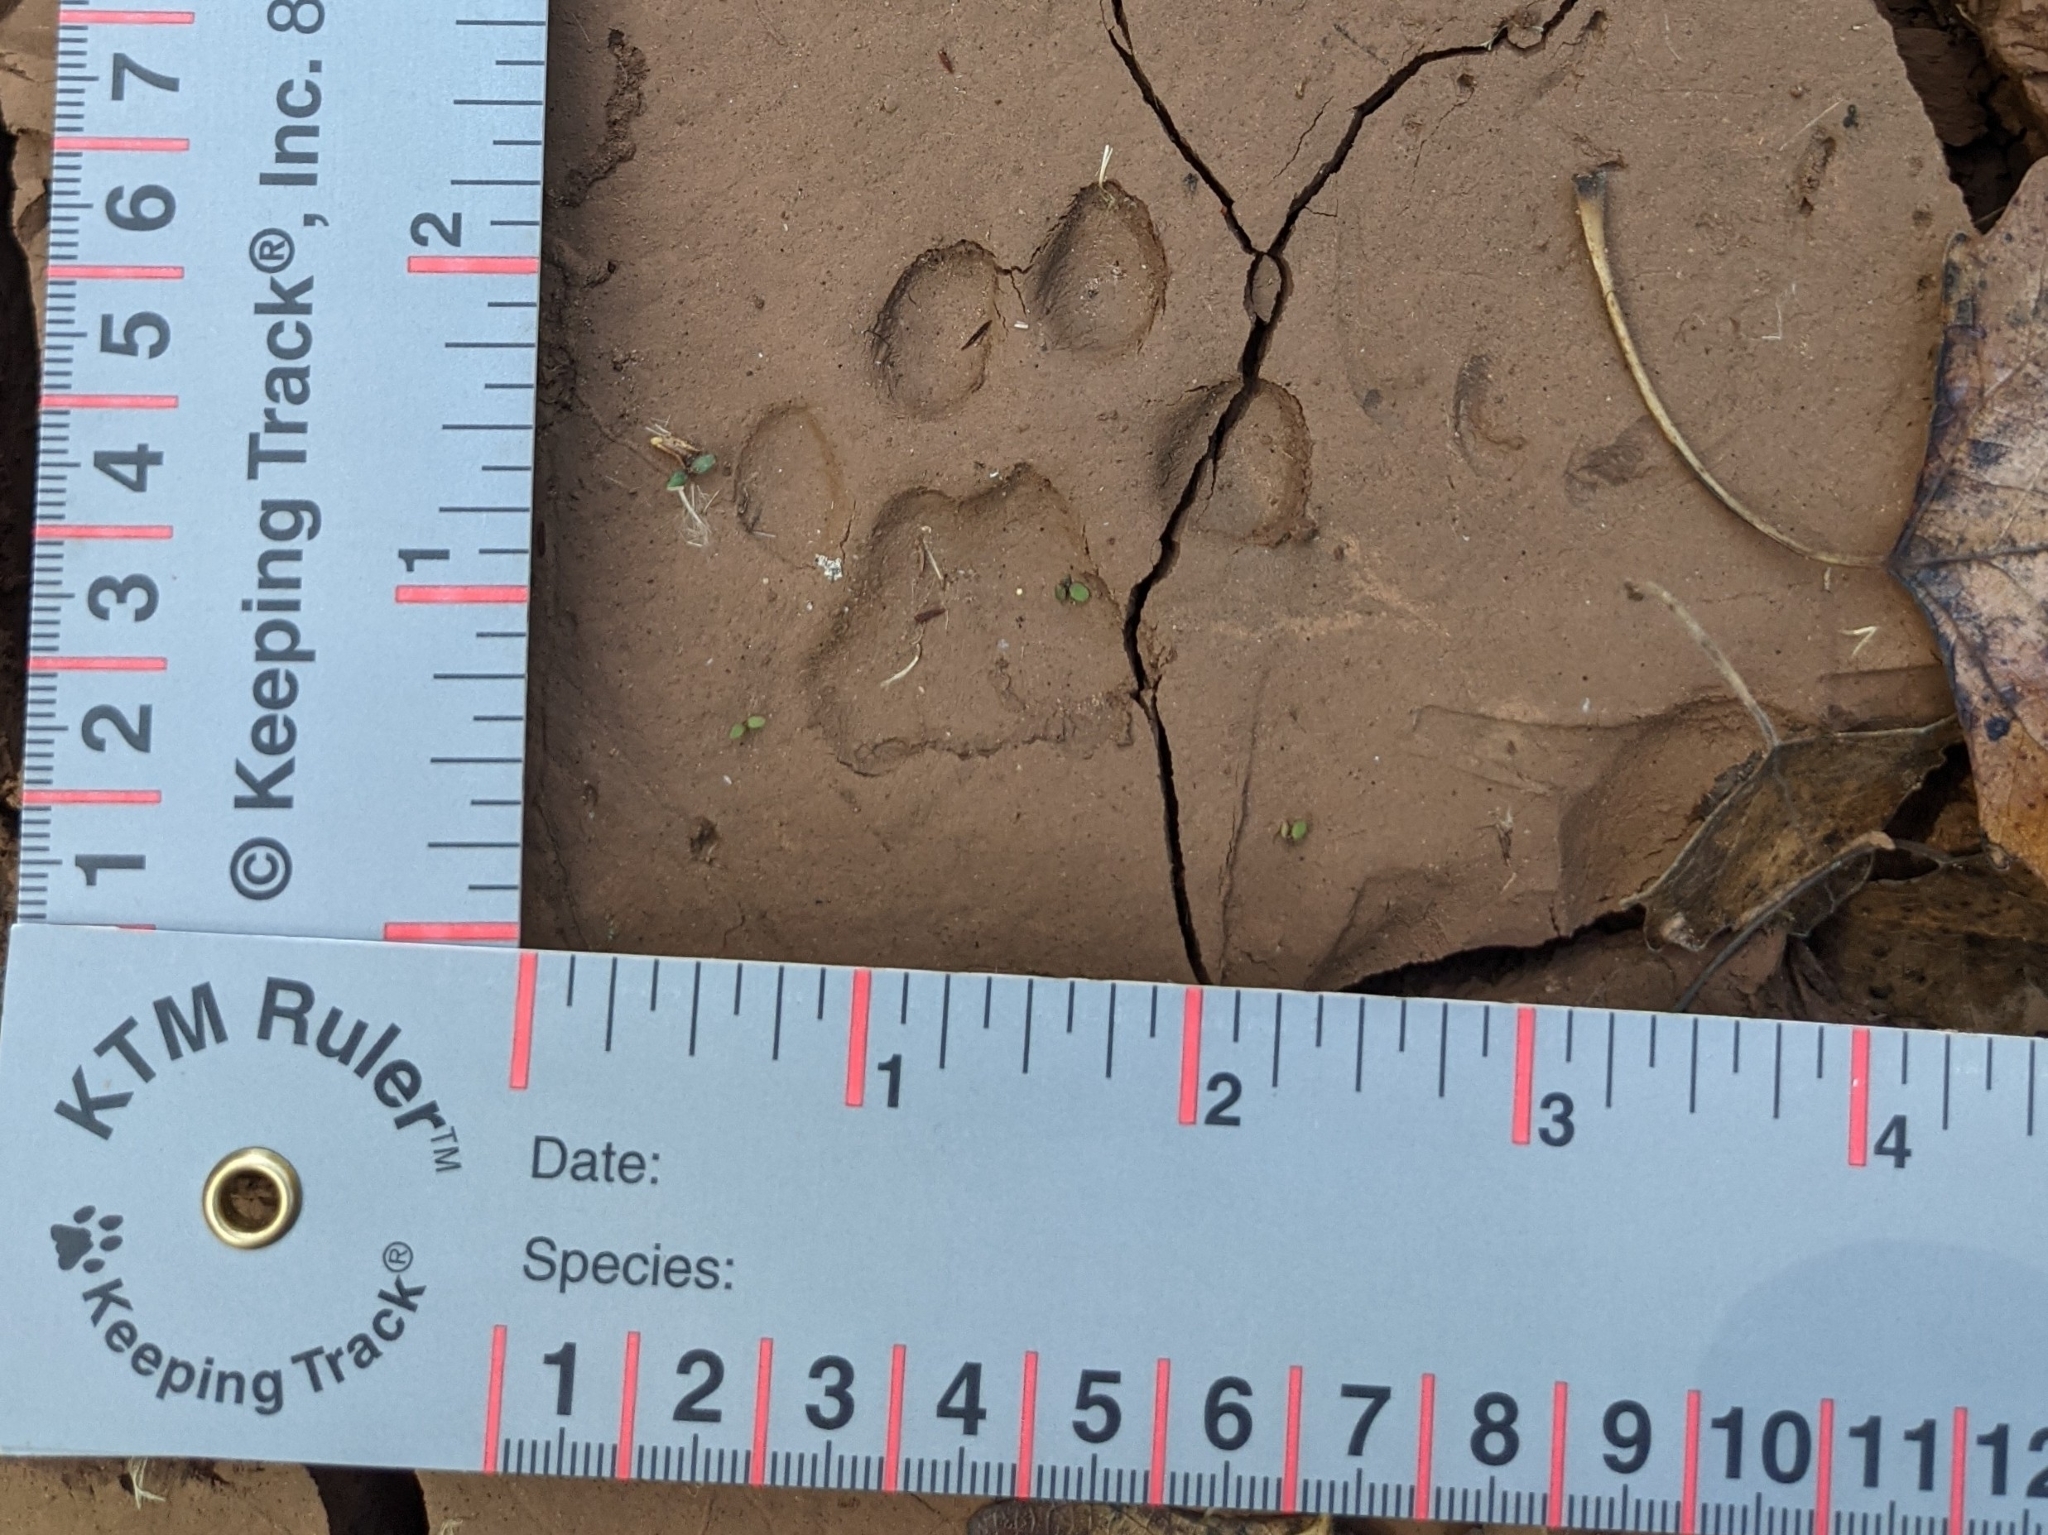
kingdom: Animalia
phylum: Chordata
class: Mammalia
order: Carnivora
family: Felidae
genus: Lynx
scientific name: Lynx rufus
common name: Bobcat
